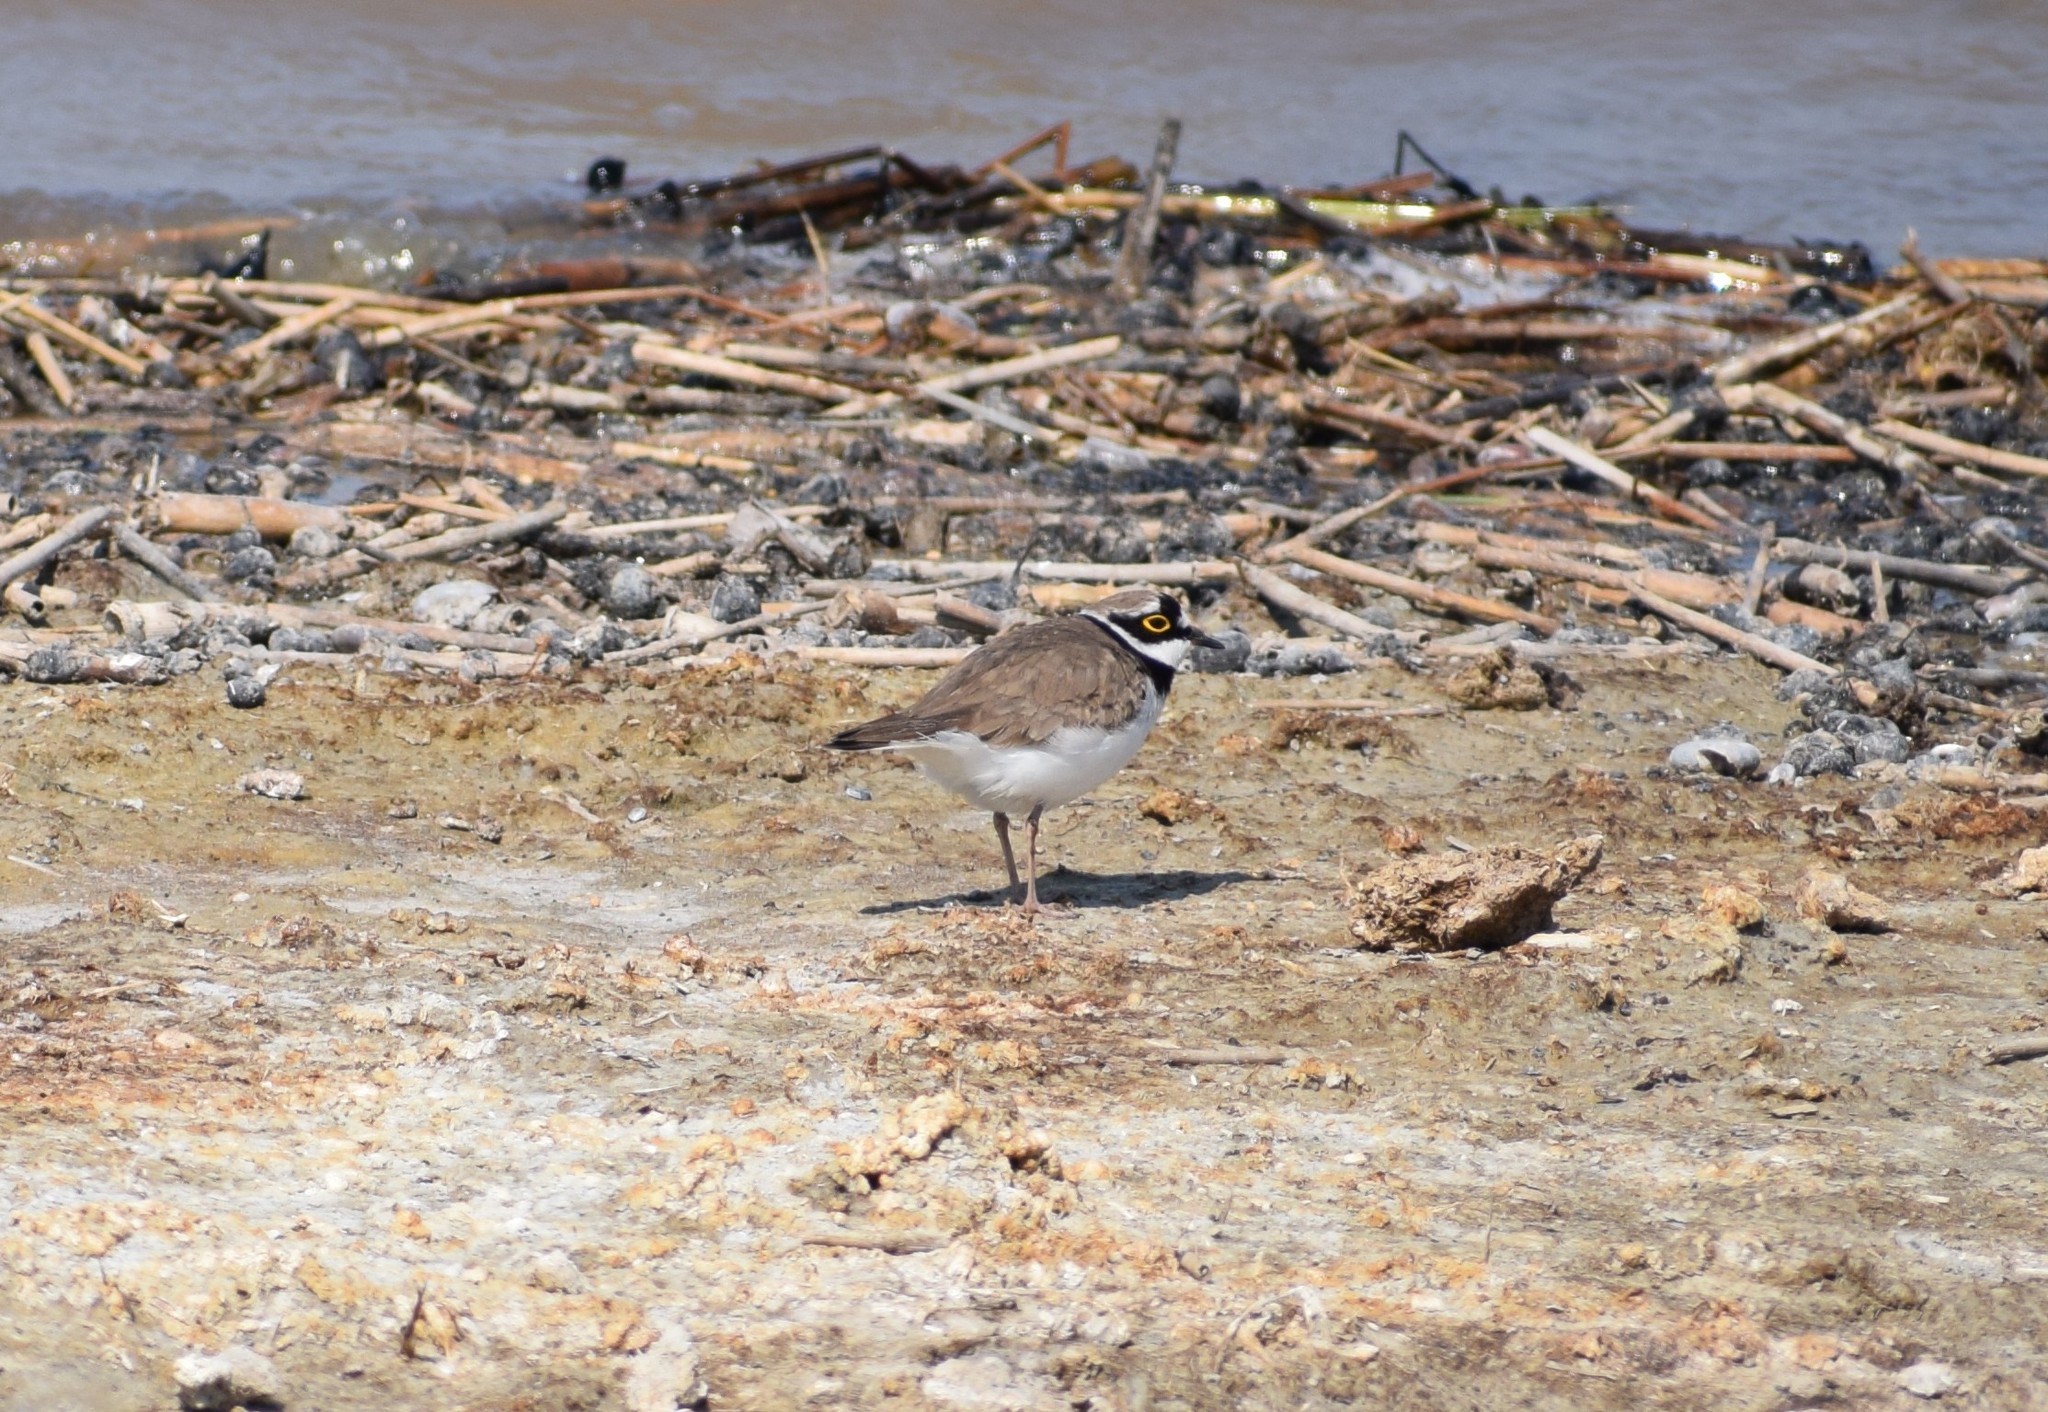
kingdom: Animalia
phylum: Chordata
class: Aves
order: Charadriiformes
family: Charadriidae
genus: Charadrius
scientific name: Charadrius dubius
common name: Little ringed plover
